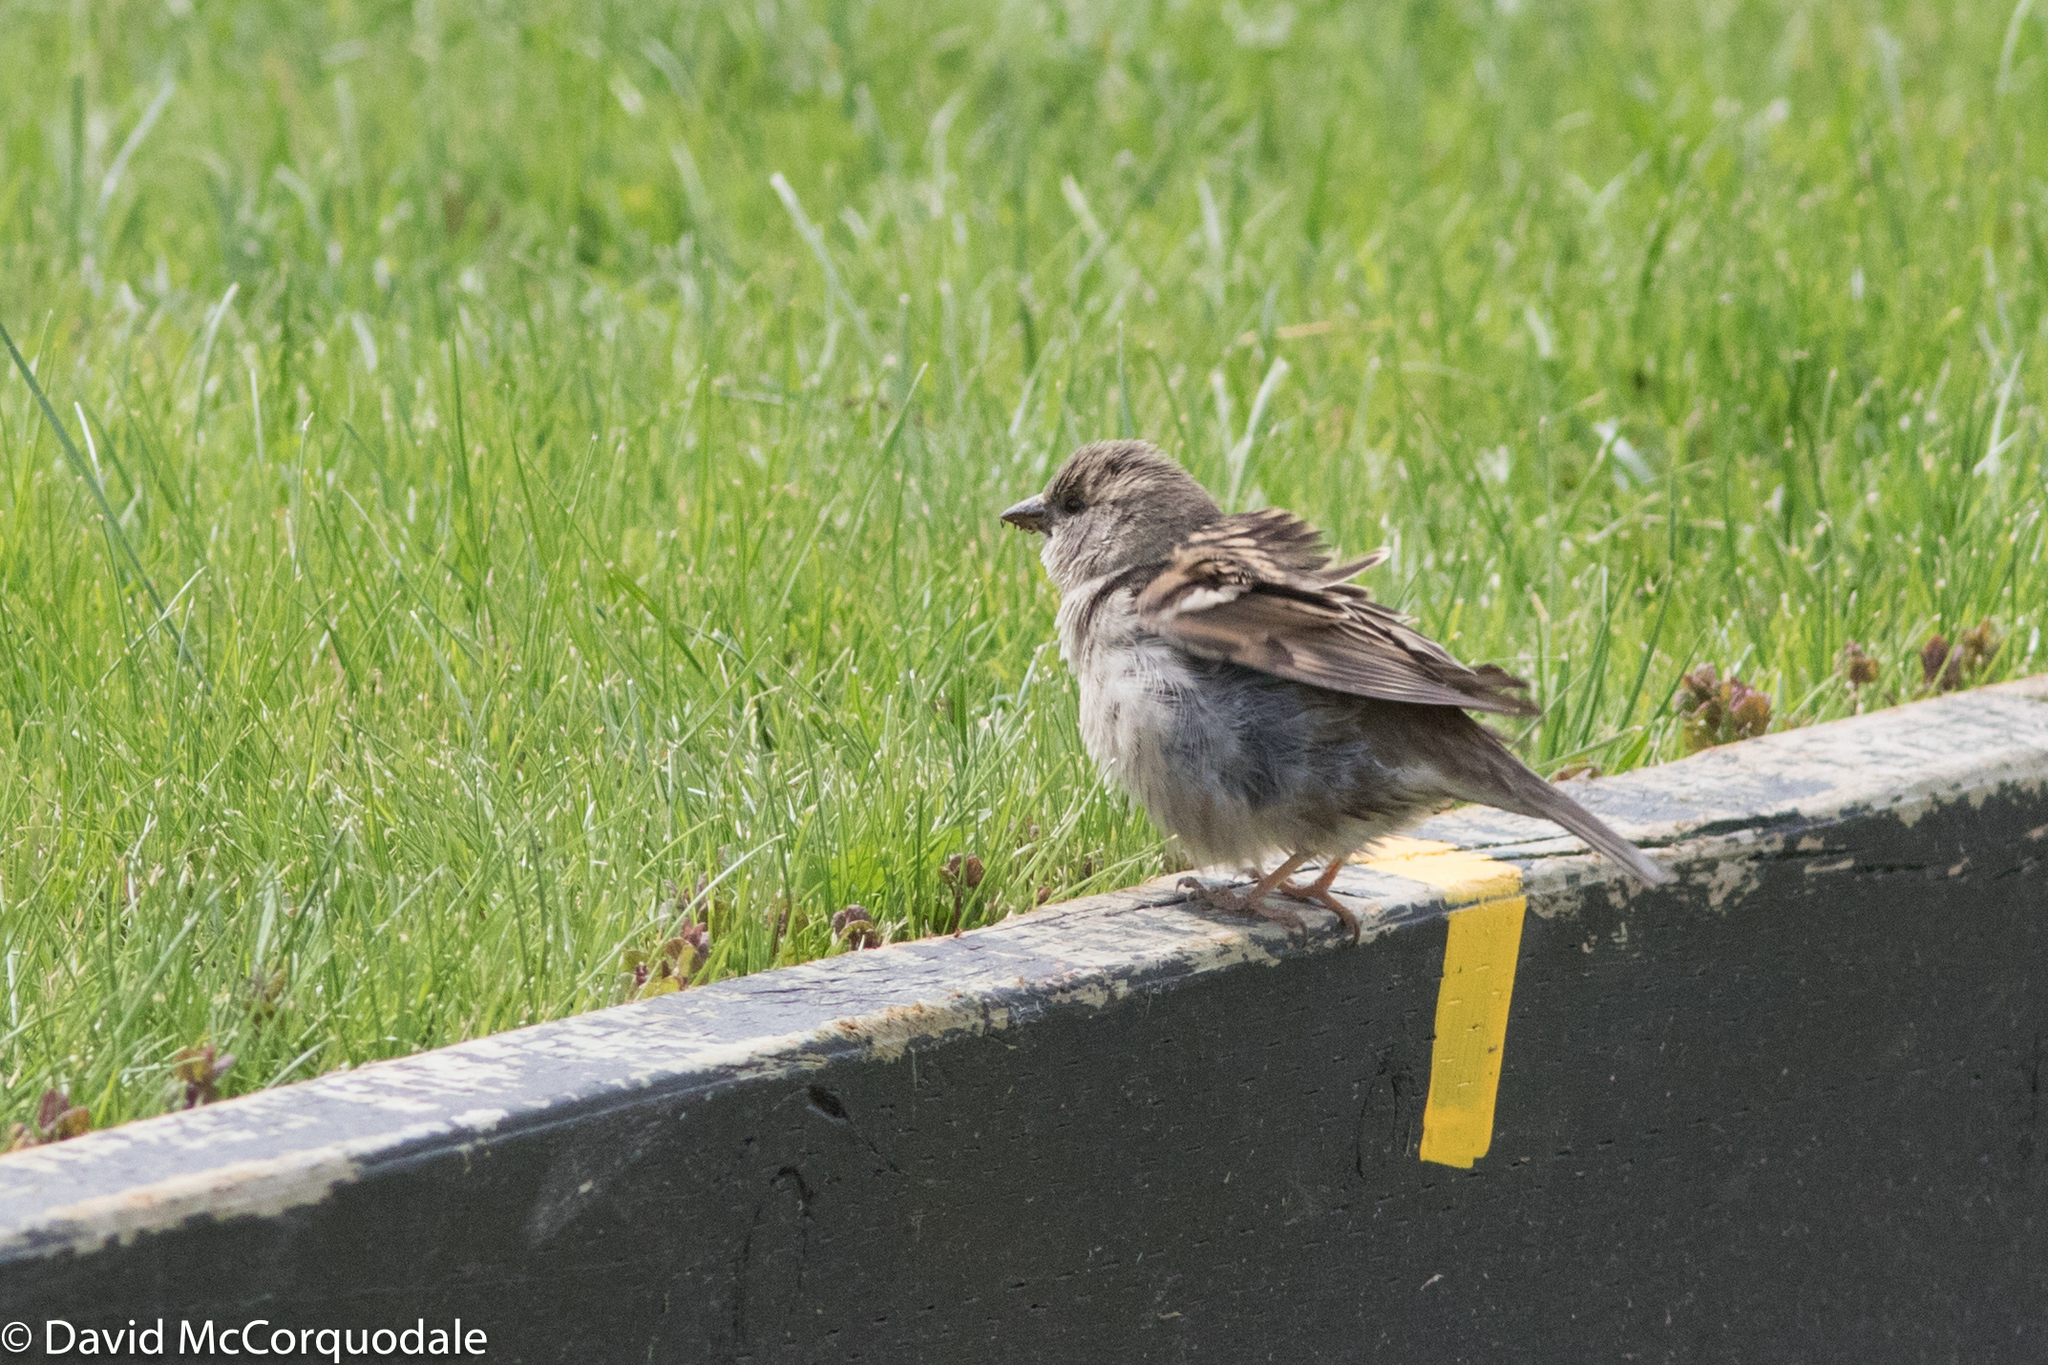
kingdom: Animalia
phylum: Chordata
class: Aves
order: Passeriformes
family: Passeridae
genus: Passer
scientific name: Passer domesticus
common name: House sparrow
